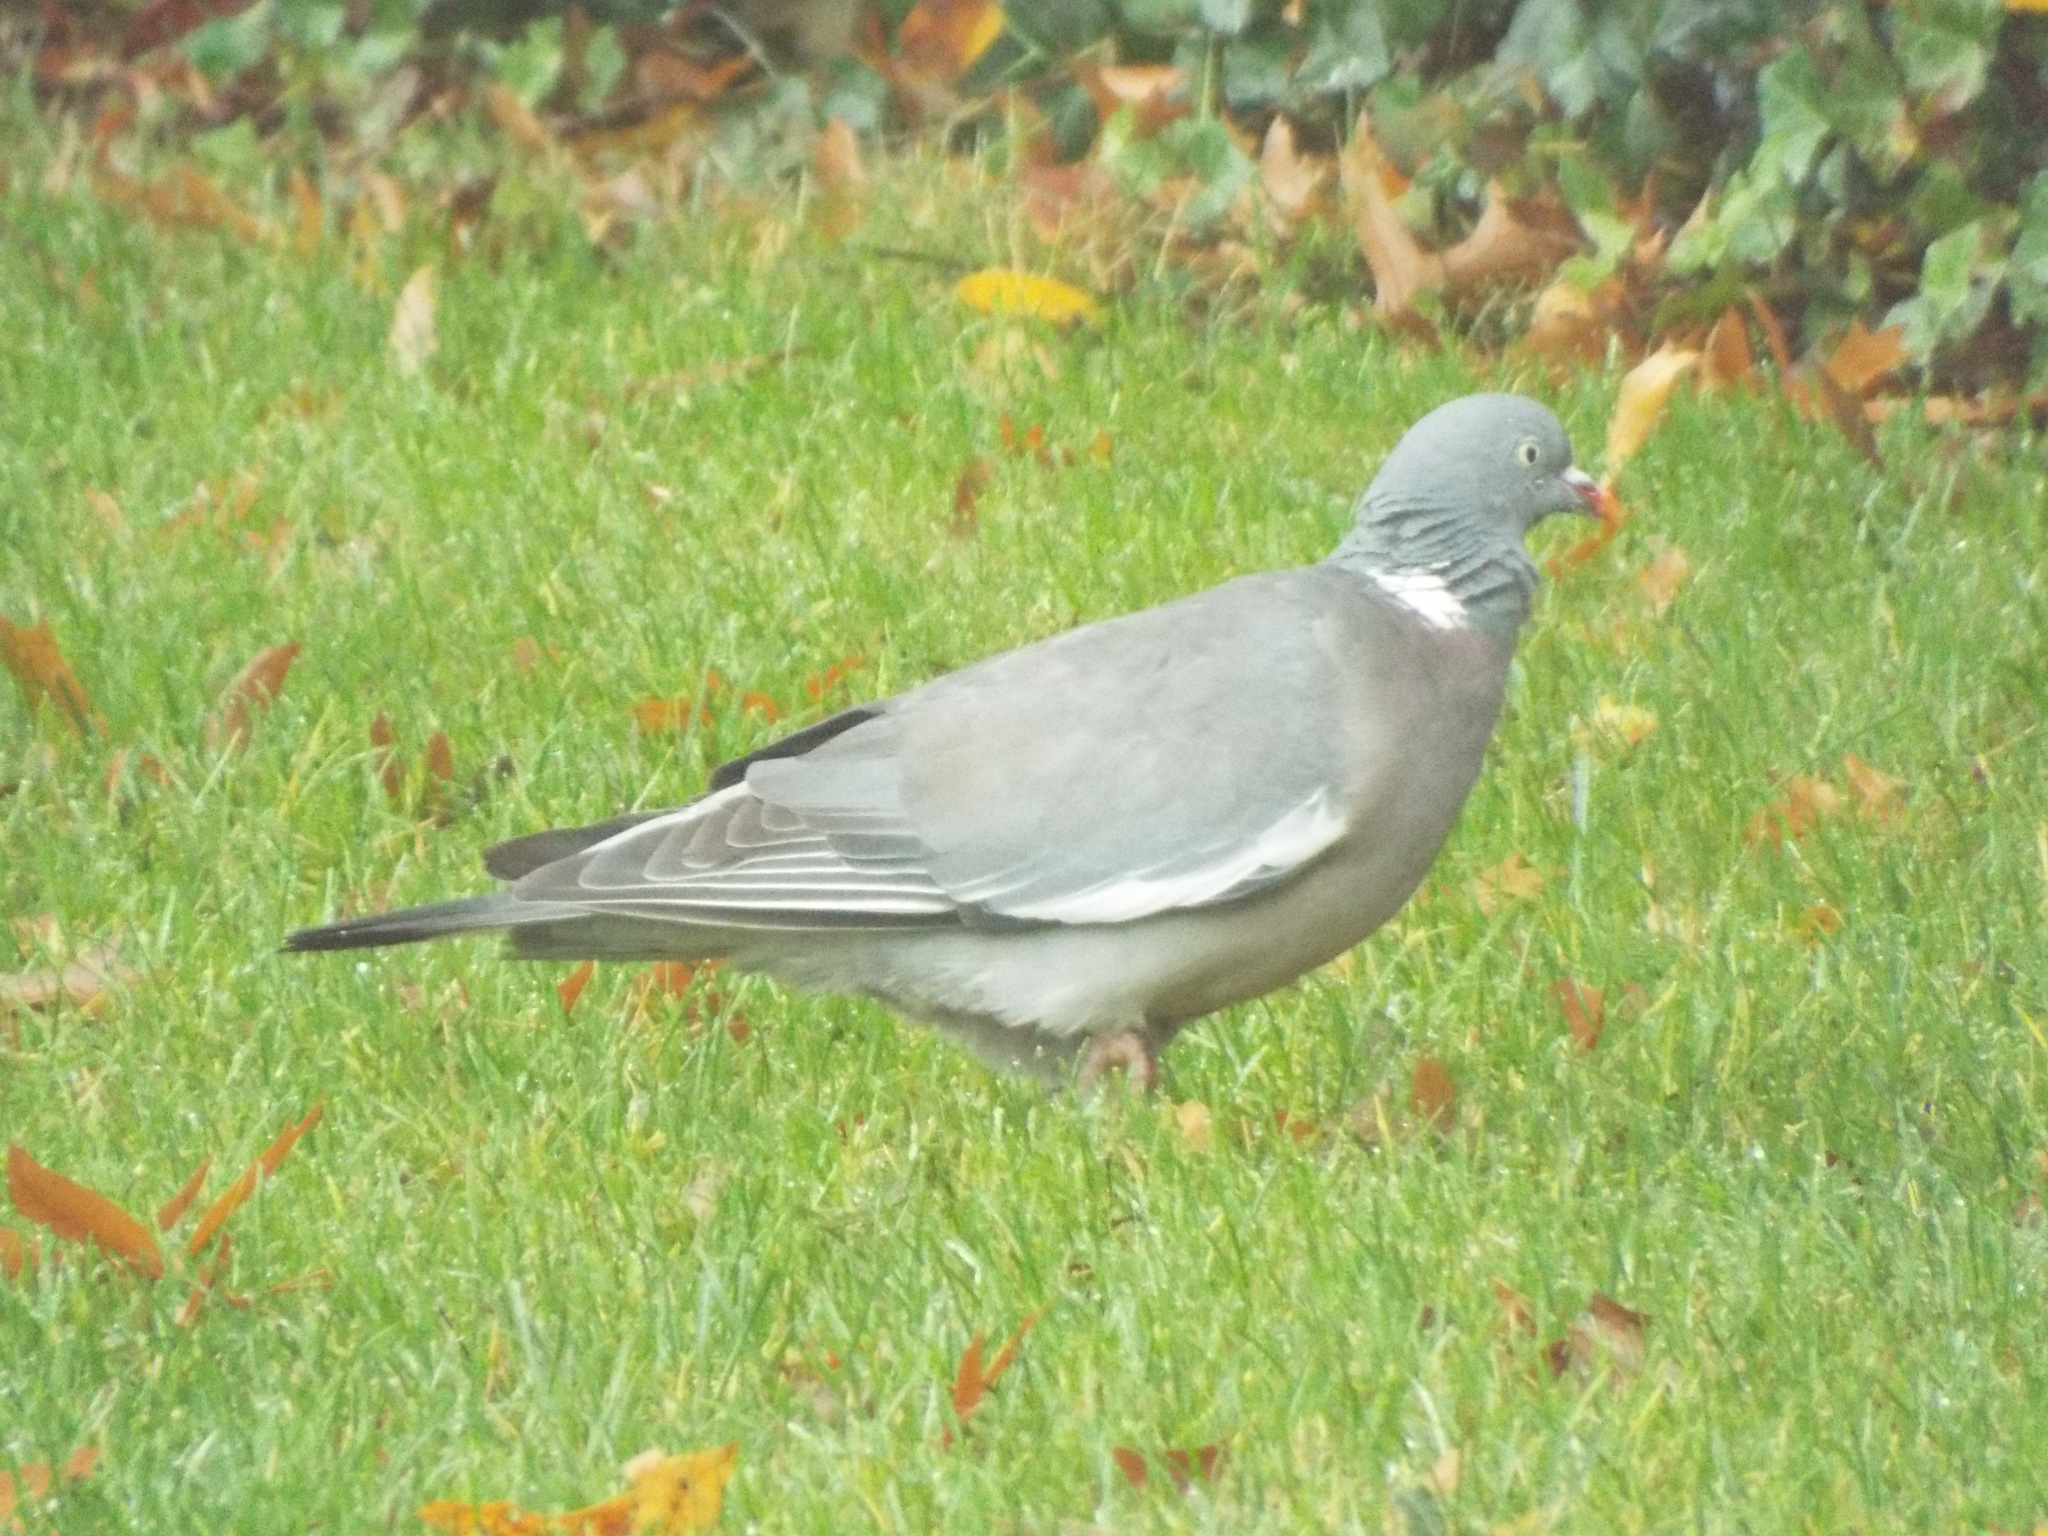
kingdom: Animalia
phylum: Chordata
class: Aves
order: Columbiformes
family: Columbidae
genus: Columba
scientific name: Columba palumbus
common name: Common wood pigeon
